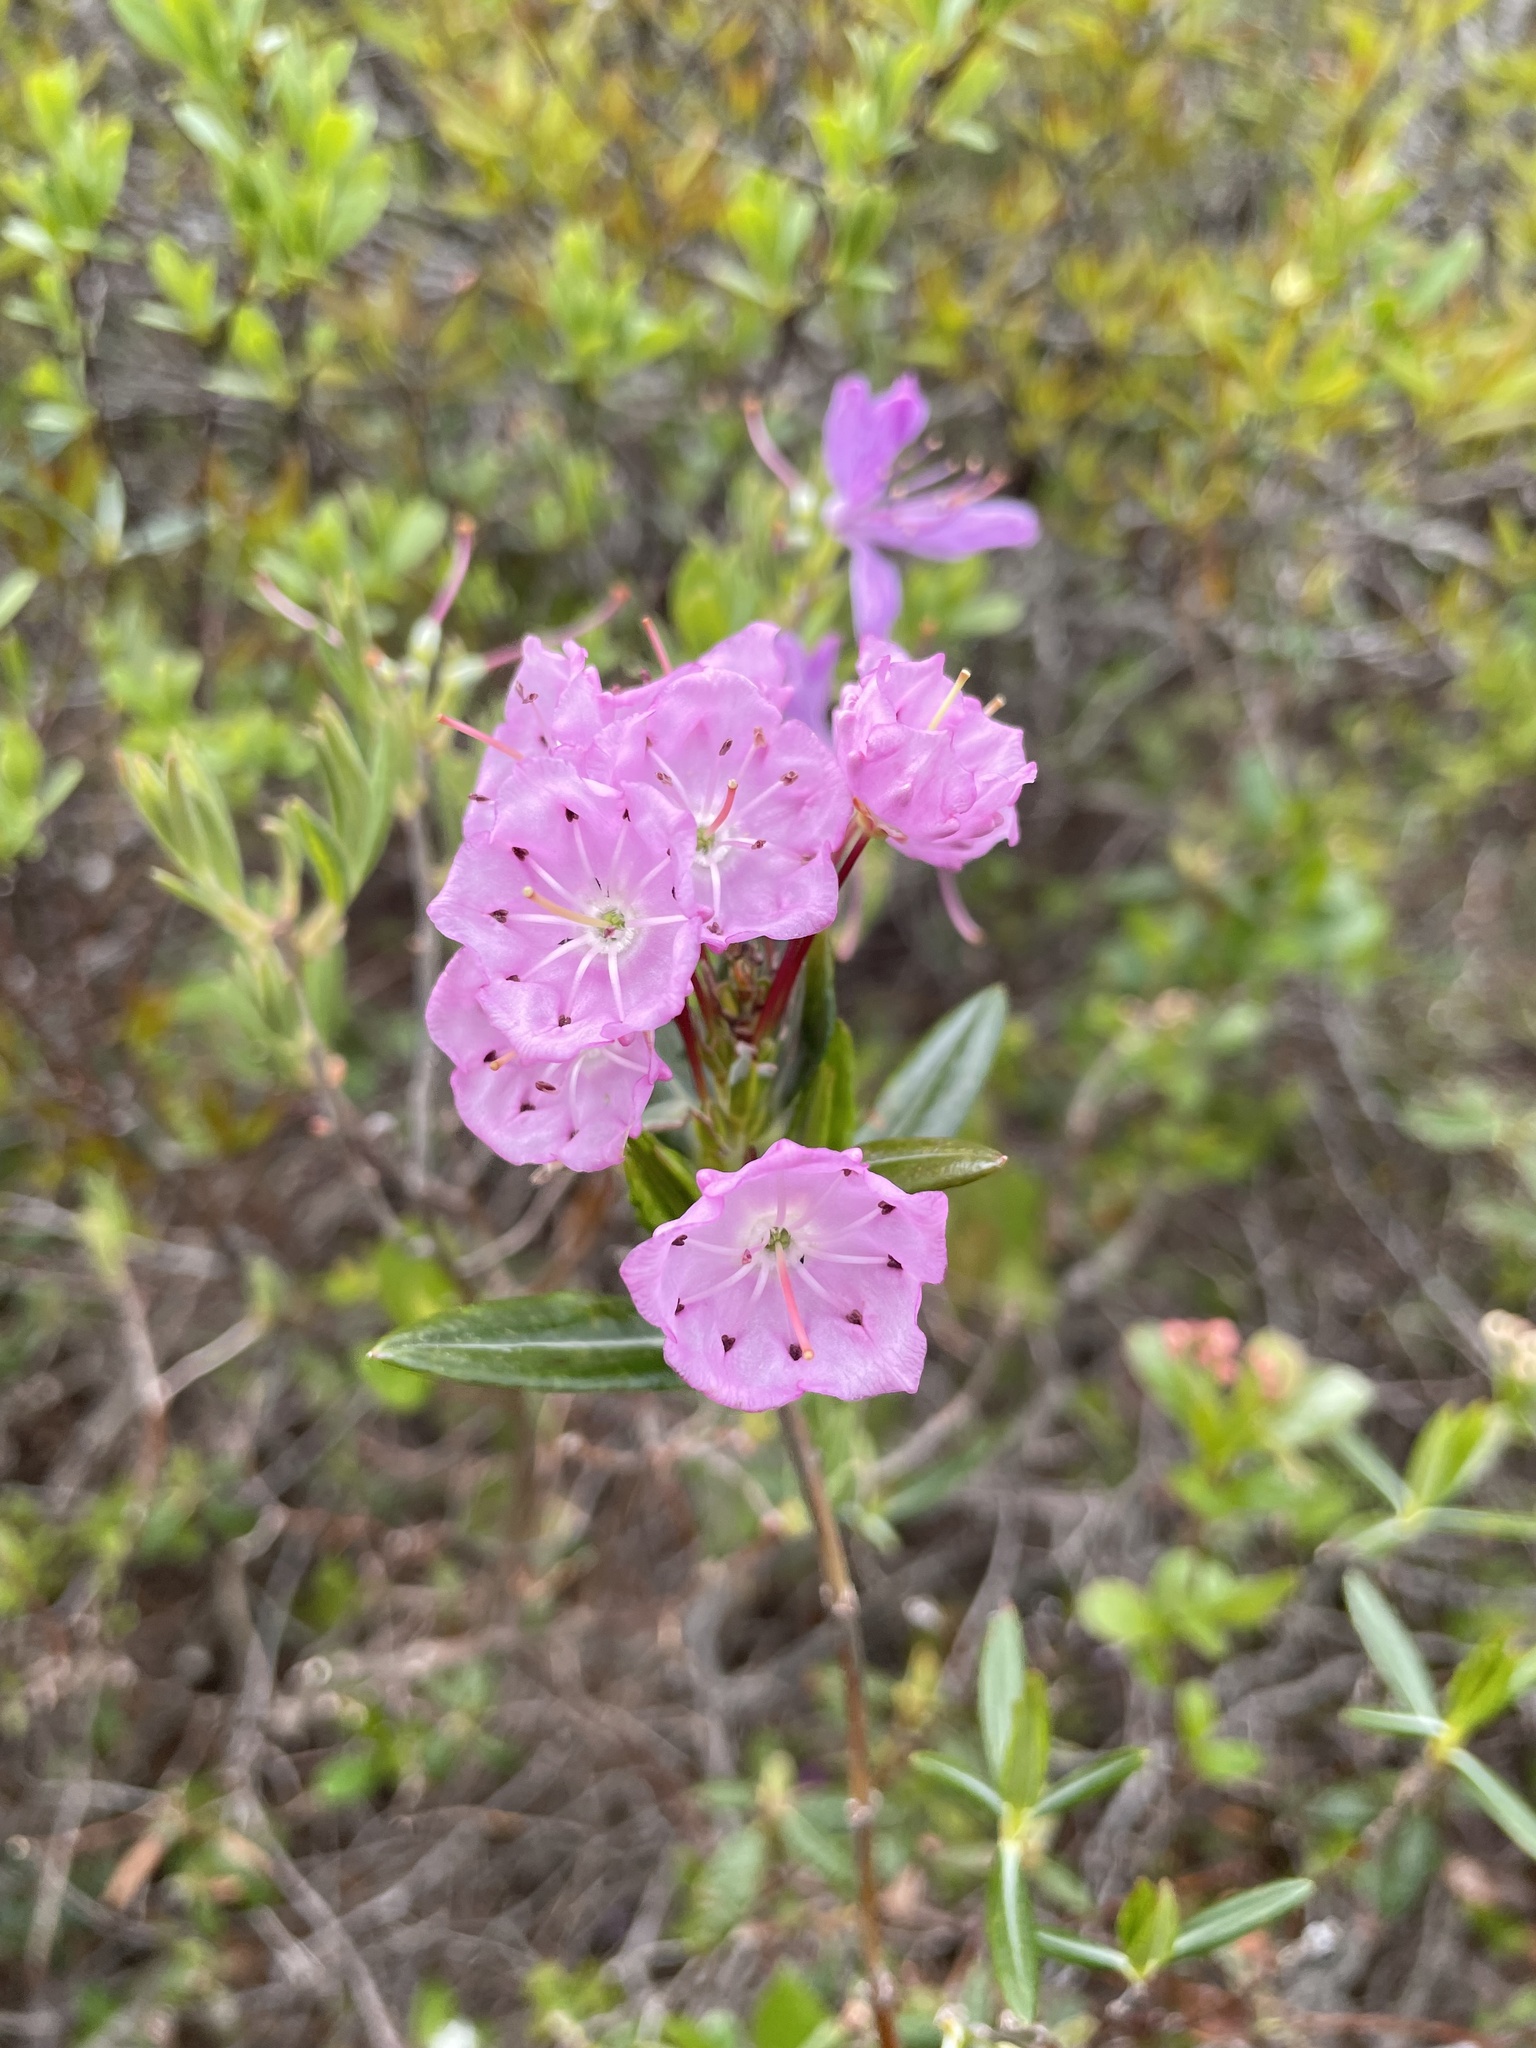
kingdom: Plantae
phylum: Tracheophyta
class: Magnoliopsida
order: Ericales
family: Ericaceae
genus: Kalmia
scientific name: Kalmia polifolia
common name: Bog-laurel
